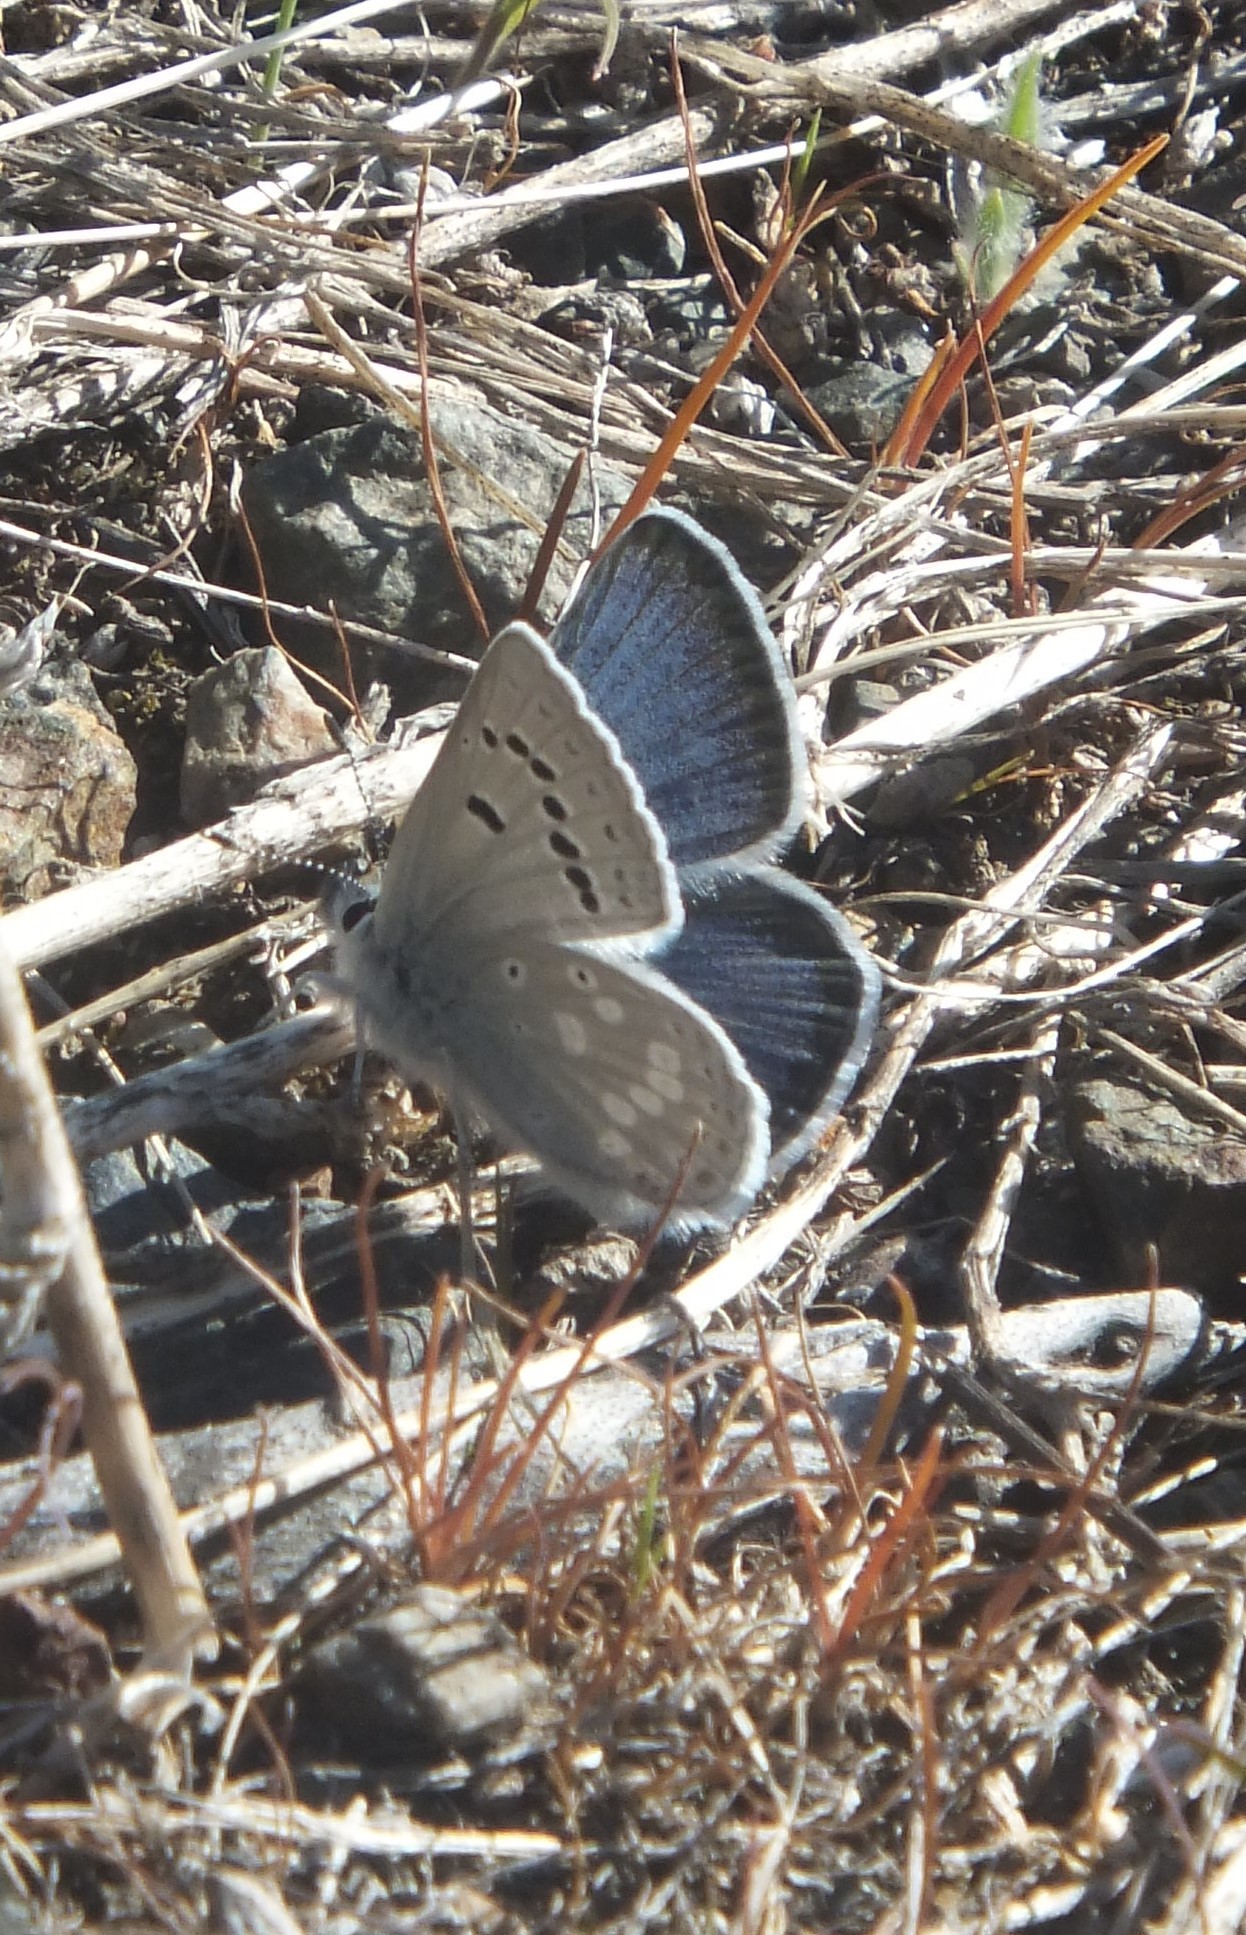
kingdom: Animalia
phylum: Arthropoda
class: Insecta
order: Lepidoptera
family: Lycaenidae
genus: Icaricia
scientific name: Icaricia icarioides
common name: Boisduval's blue
